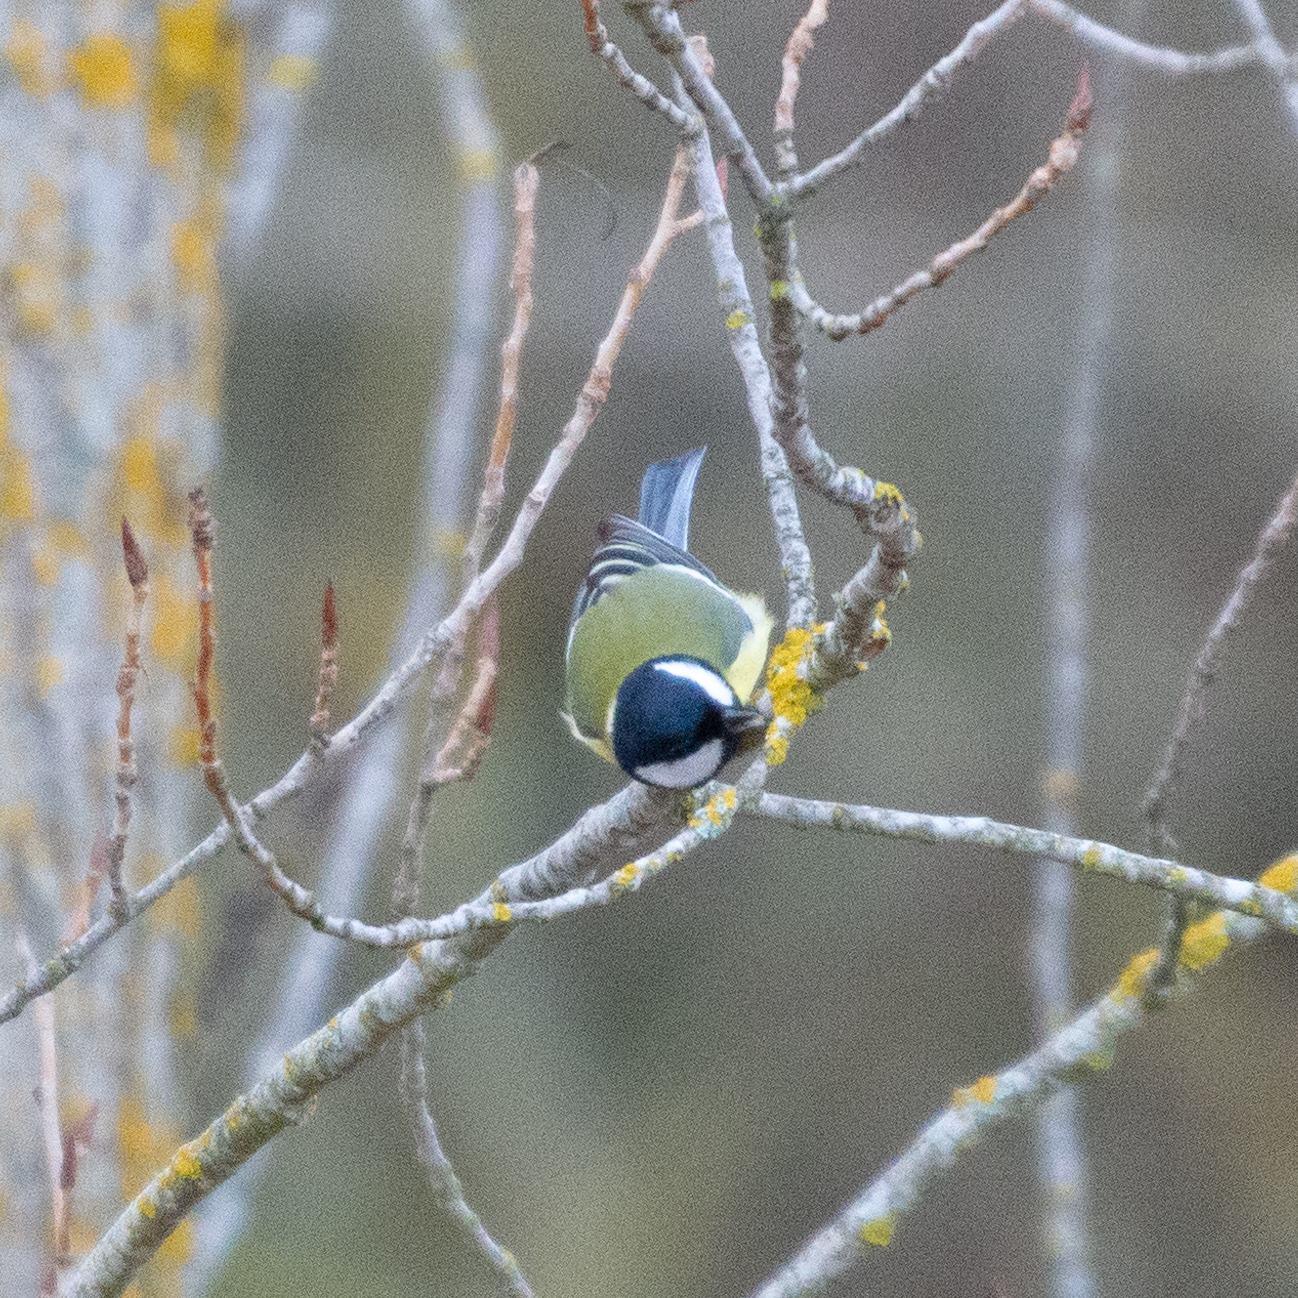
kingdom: Animalia
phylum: Chordata
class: Aves
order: Passeriformes
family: Paridae
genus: Parus
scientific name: Parus major
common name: Great tit
